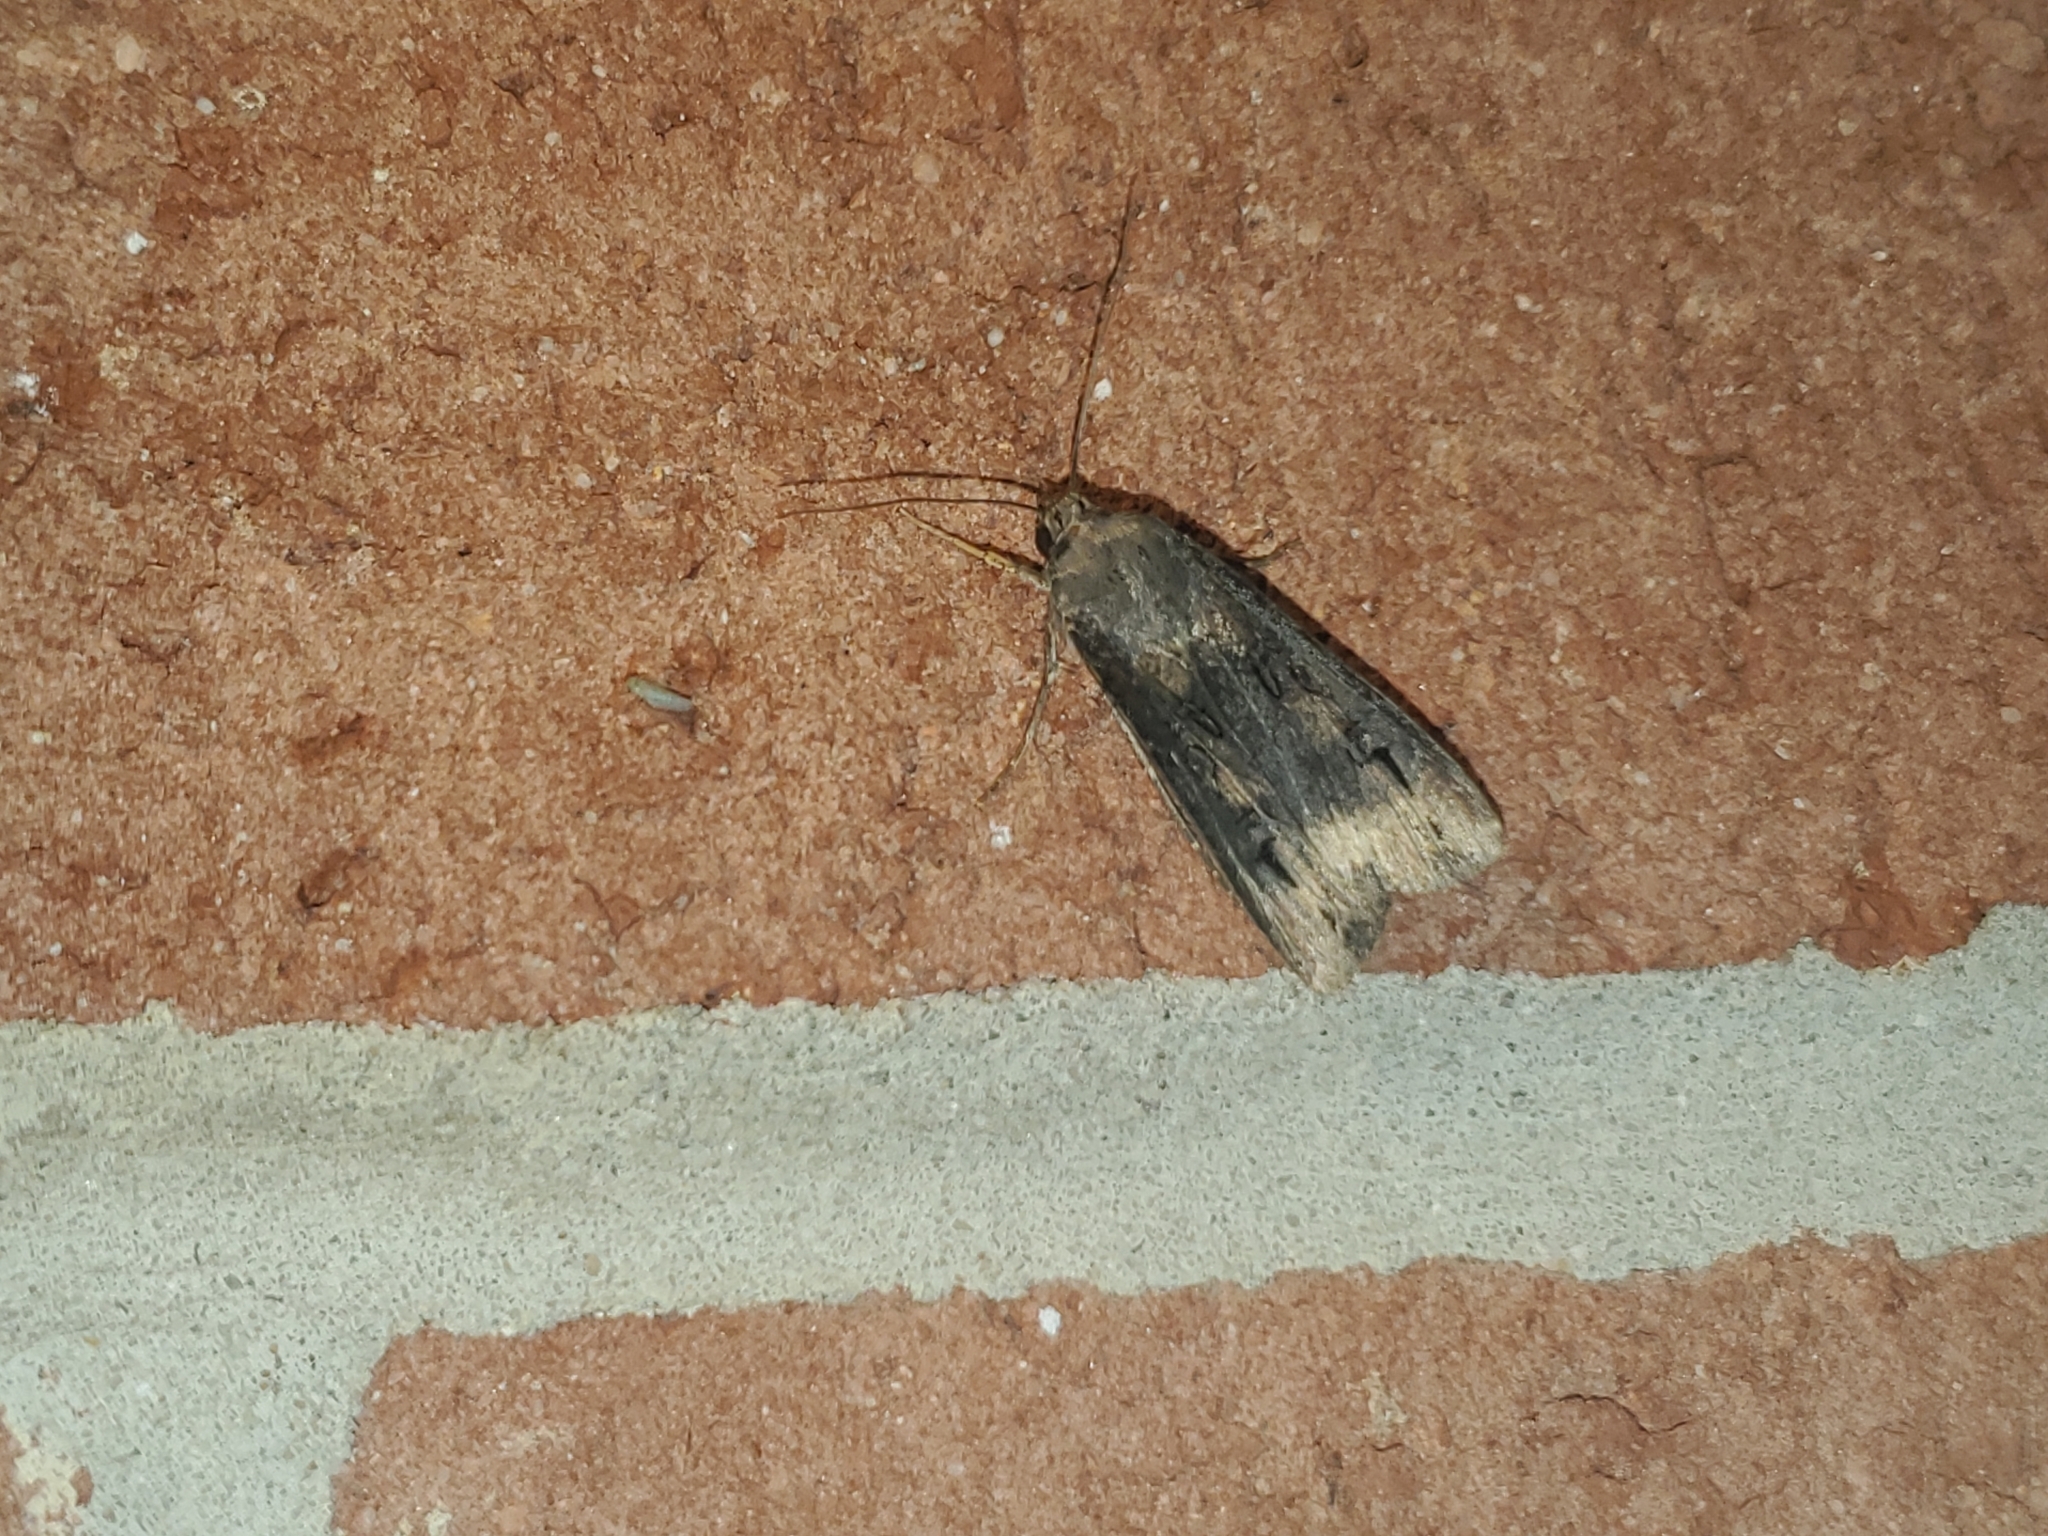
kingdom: Animalia
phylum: Arthropoda
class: Insecta
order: Lepidoptera
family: Noctuidae
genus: Agrotis
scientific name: Agrotis ipsilon
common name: Dark sword-grass
